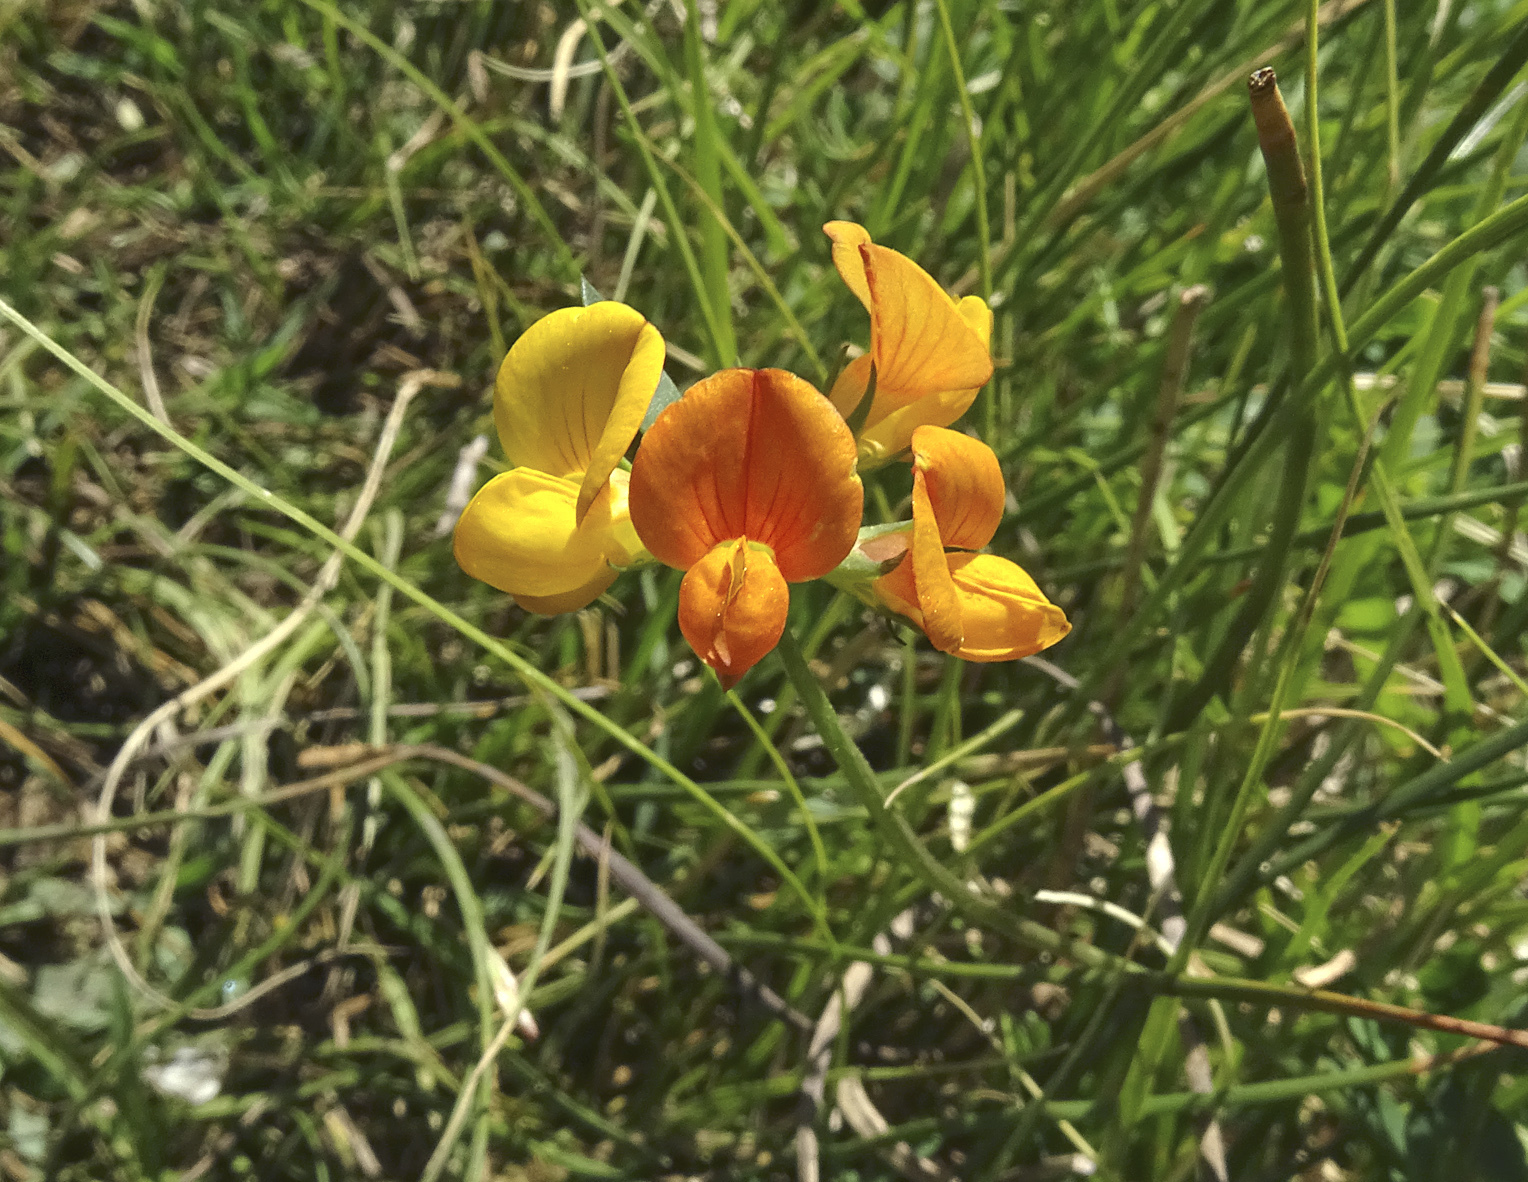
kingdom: Plantae
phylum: Tracheophyta
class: Magnoliopsida
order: Fabales
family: Fabaceae
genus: Lotus
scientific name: Lotus corniculatus
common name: Common bird's-foot-trefoil
